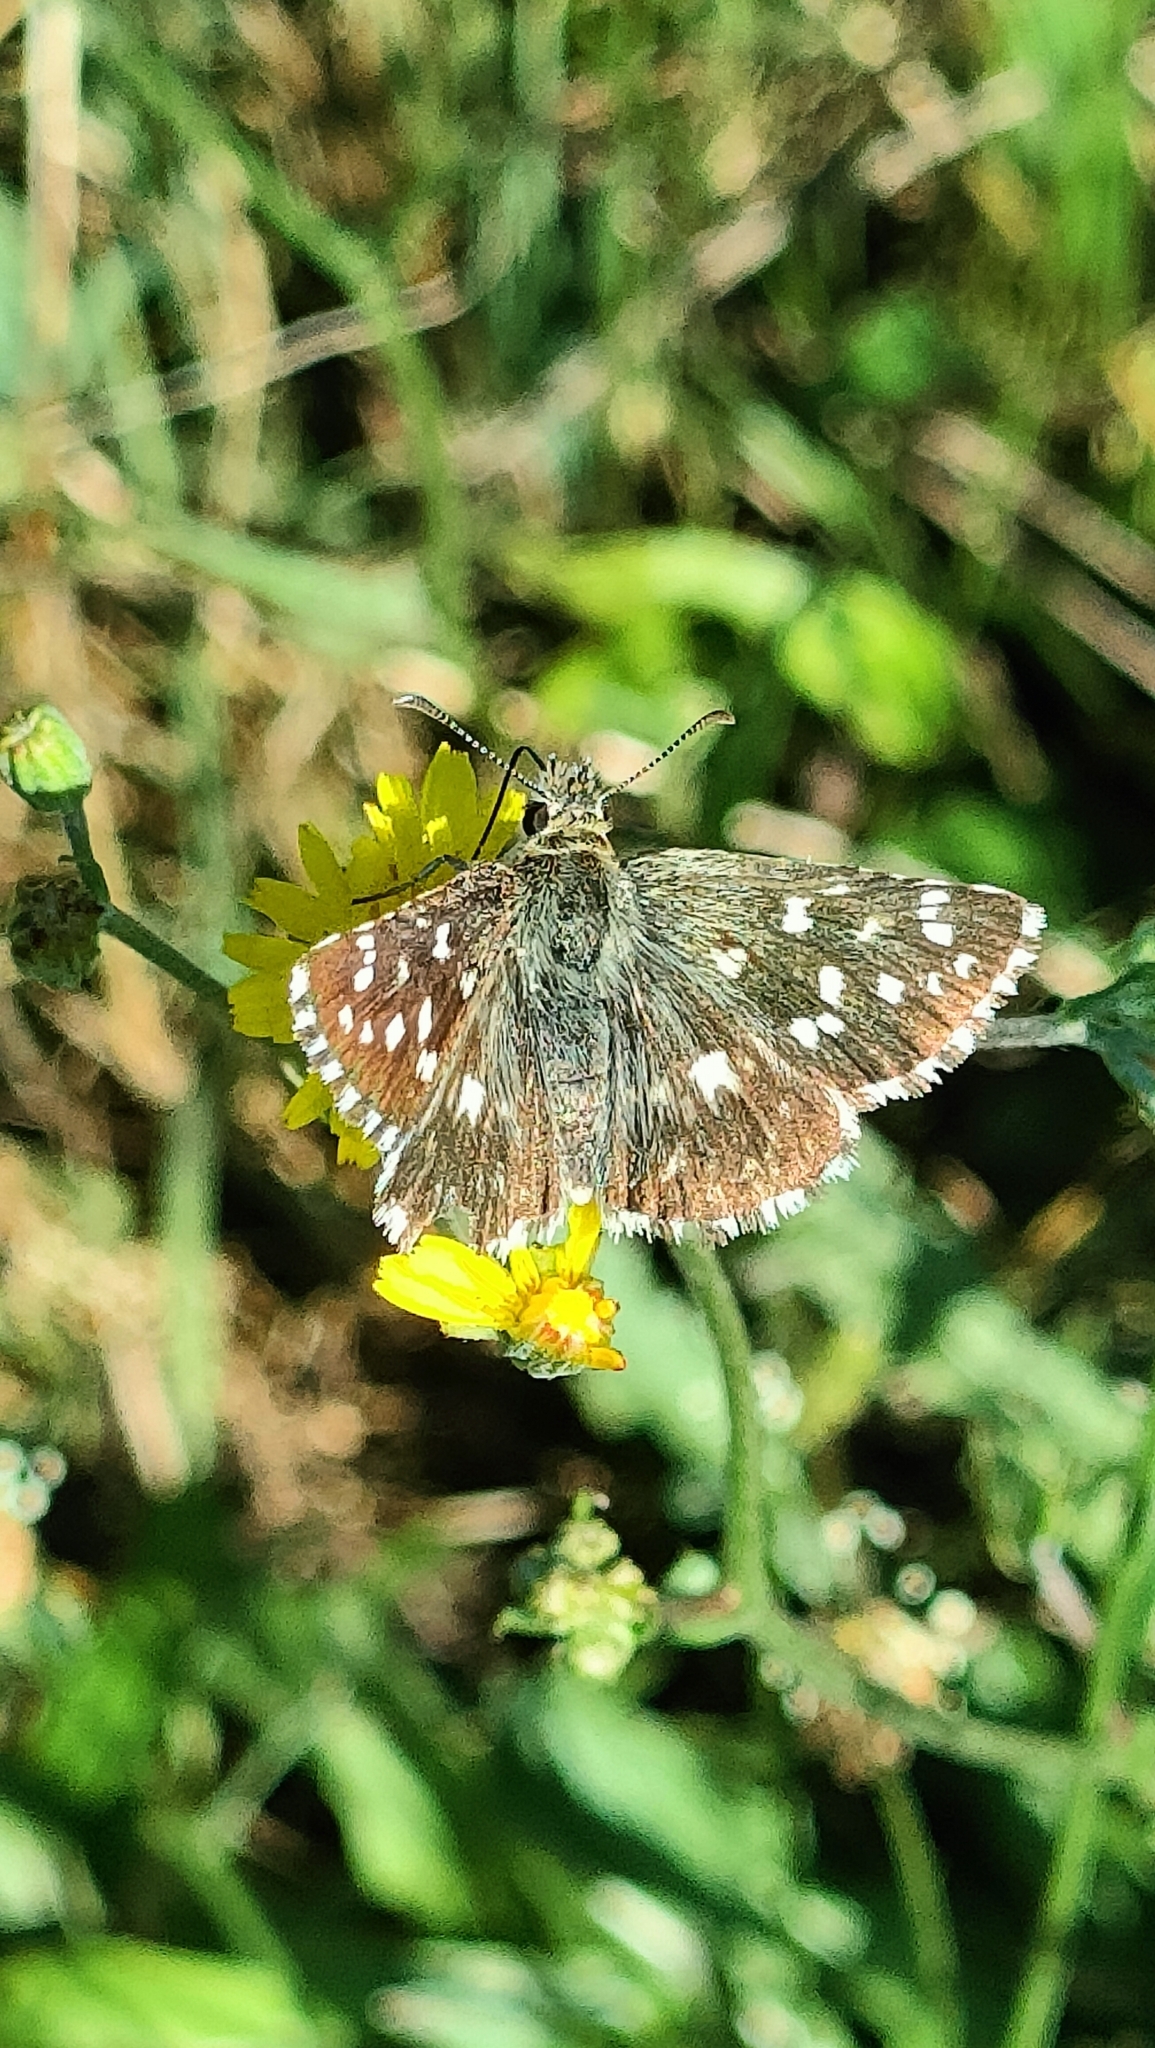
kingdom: Animalia
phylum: Arthropoda
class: Insecta
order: Lepidoptera
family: Hesperiidae
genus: Pyrgus
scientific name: Pyrgus malvoides
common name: Southern grizzled skipper
